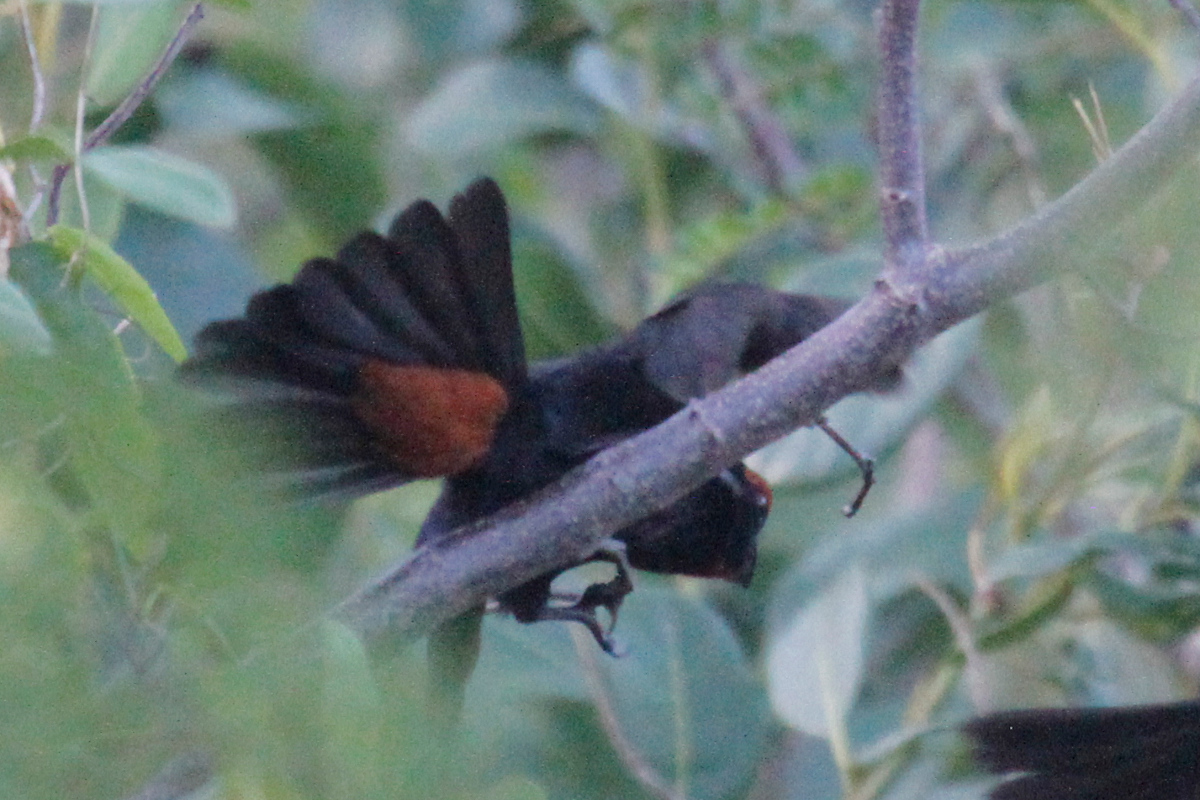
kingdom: Animalia
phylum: Chordata
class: Aves
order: Passeriformes
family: Thraupidae
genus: Melopyrrha
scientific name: Melopyrrha violacea
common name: Greater antillean bullfinch
